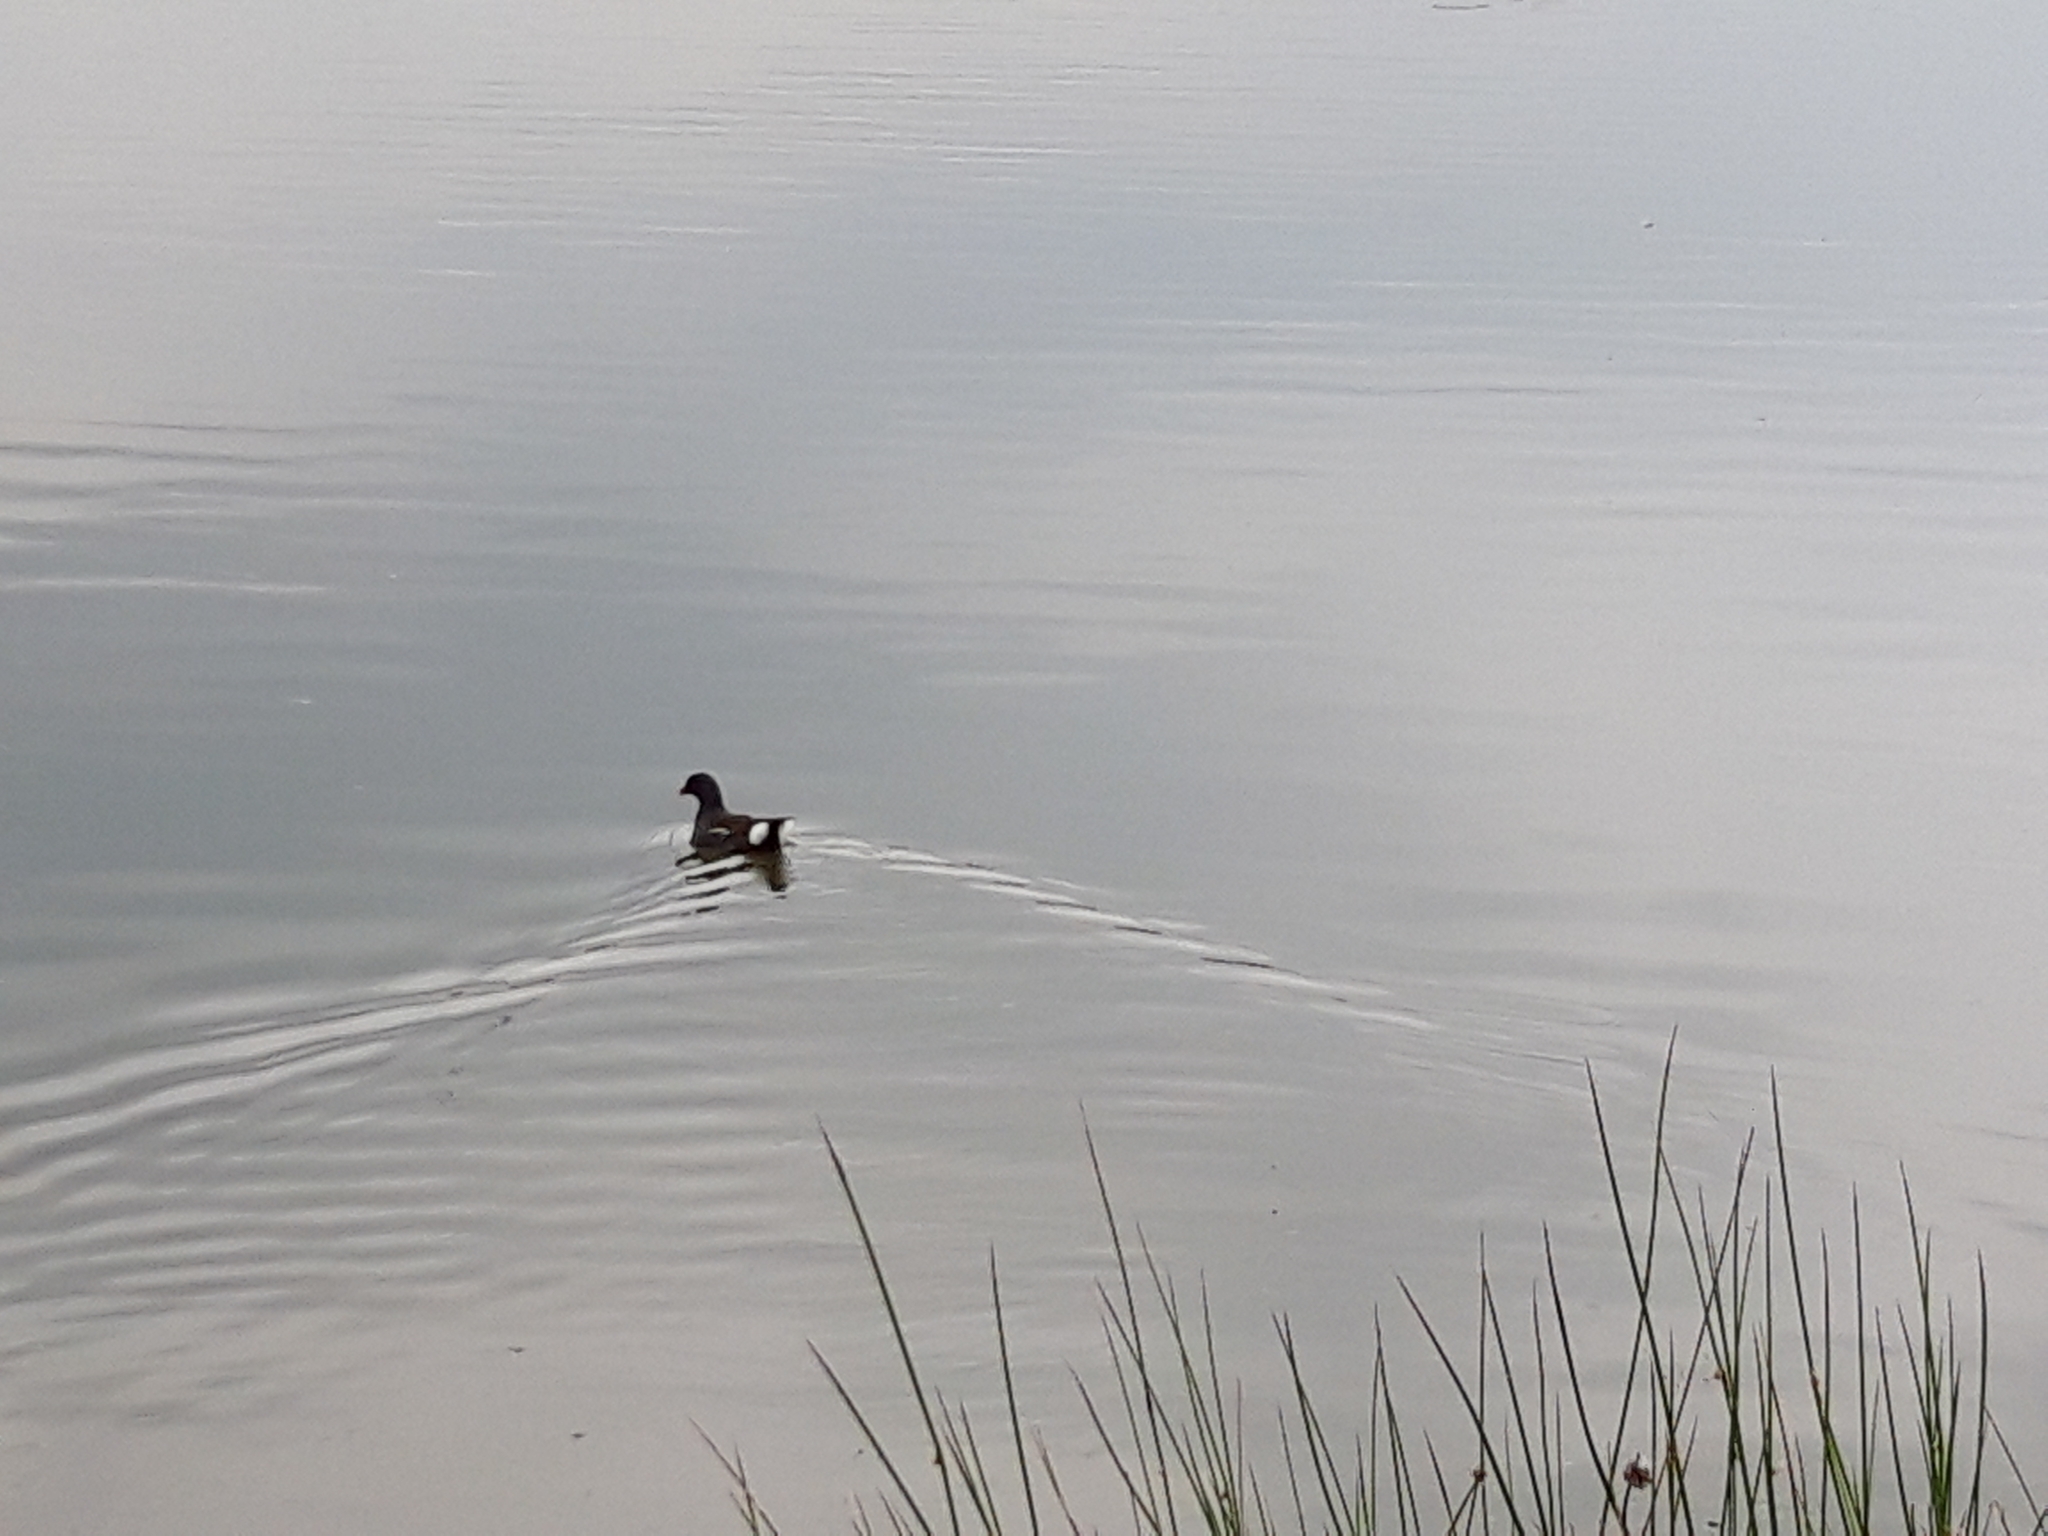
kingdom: Animalia
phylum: Chordata
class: Aves
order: Gruiformes
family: Rallidae
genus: Gallinula
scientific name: Gallinula chloropus
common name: Common moorhen
